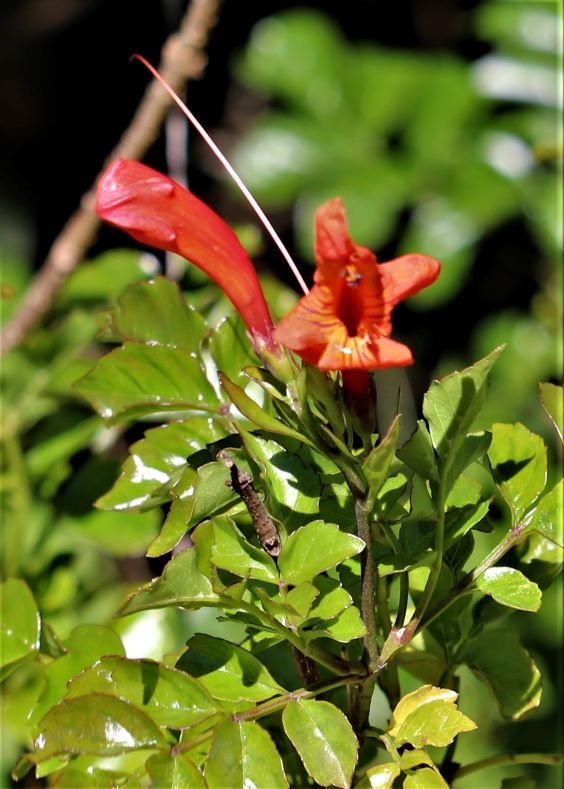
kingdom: Plantae
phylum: Tracheophyta
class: Magnoliopsida
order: Lamiales
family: Bignoniaceae
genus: Tecomaria
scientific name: Tecomaria capensis
